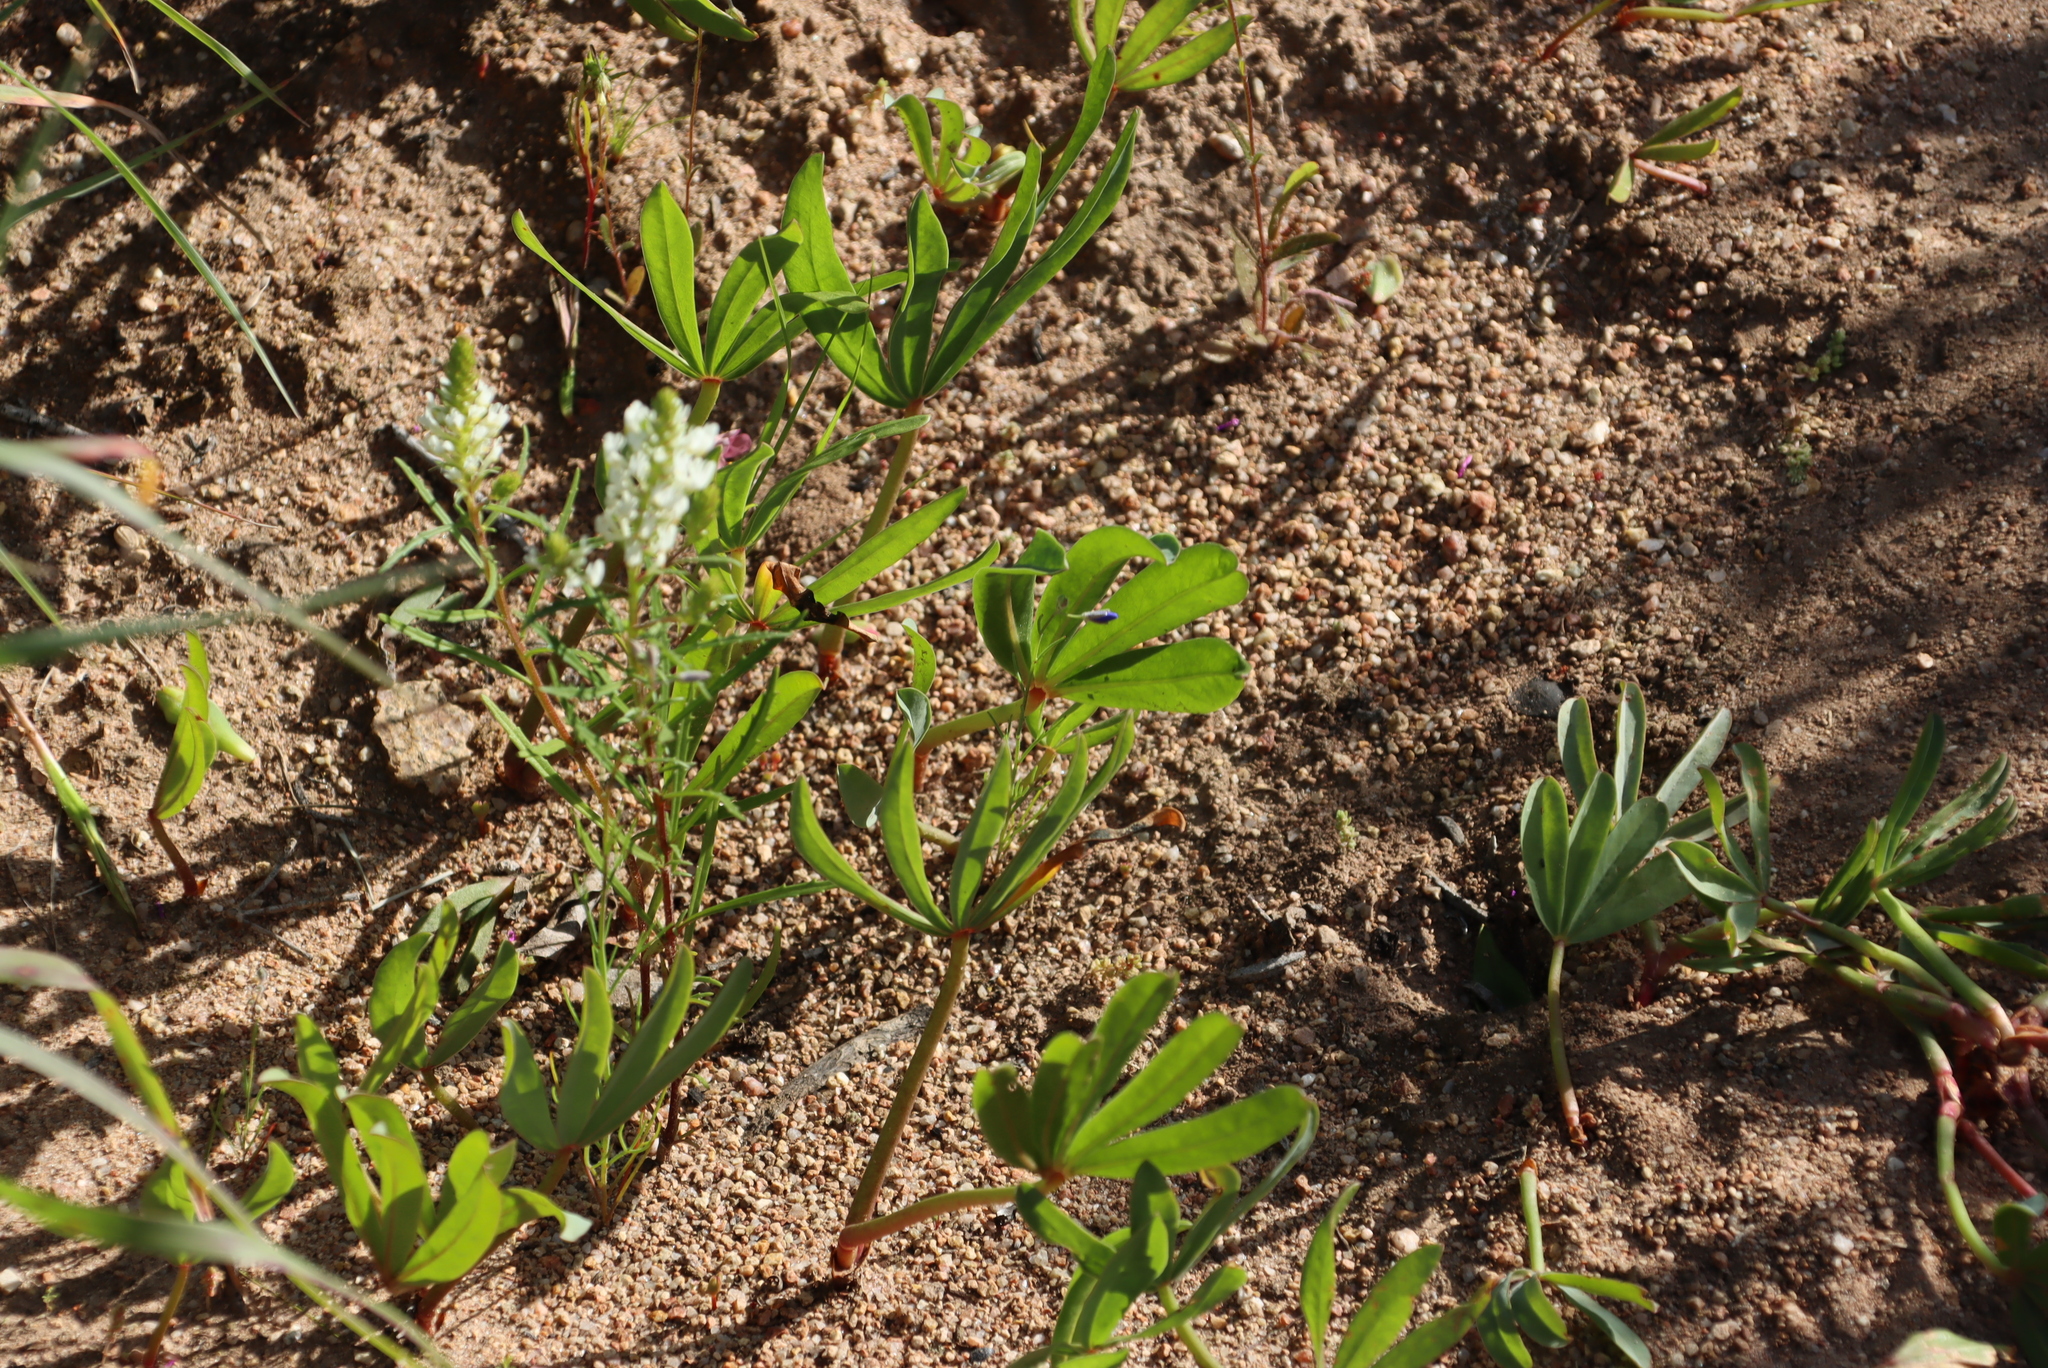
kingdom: Plantae
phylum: Tracheophyta
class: Magnoliopsida
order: Oxalidales
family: Oxalidaceae
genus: Oxalis
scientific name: Oxalis flava
